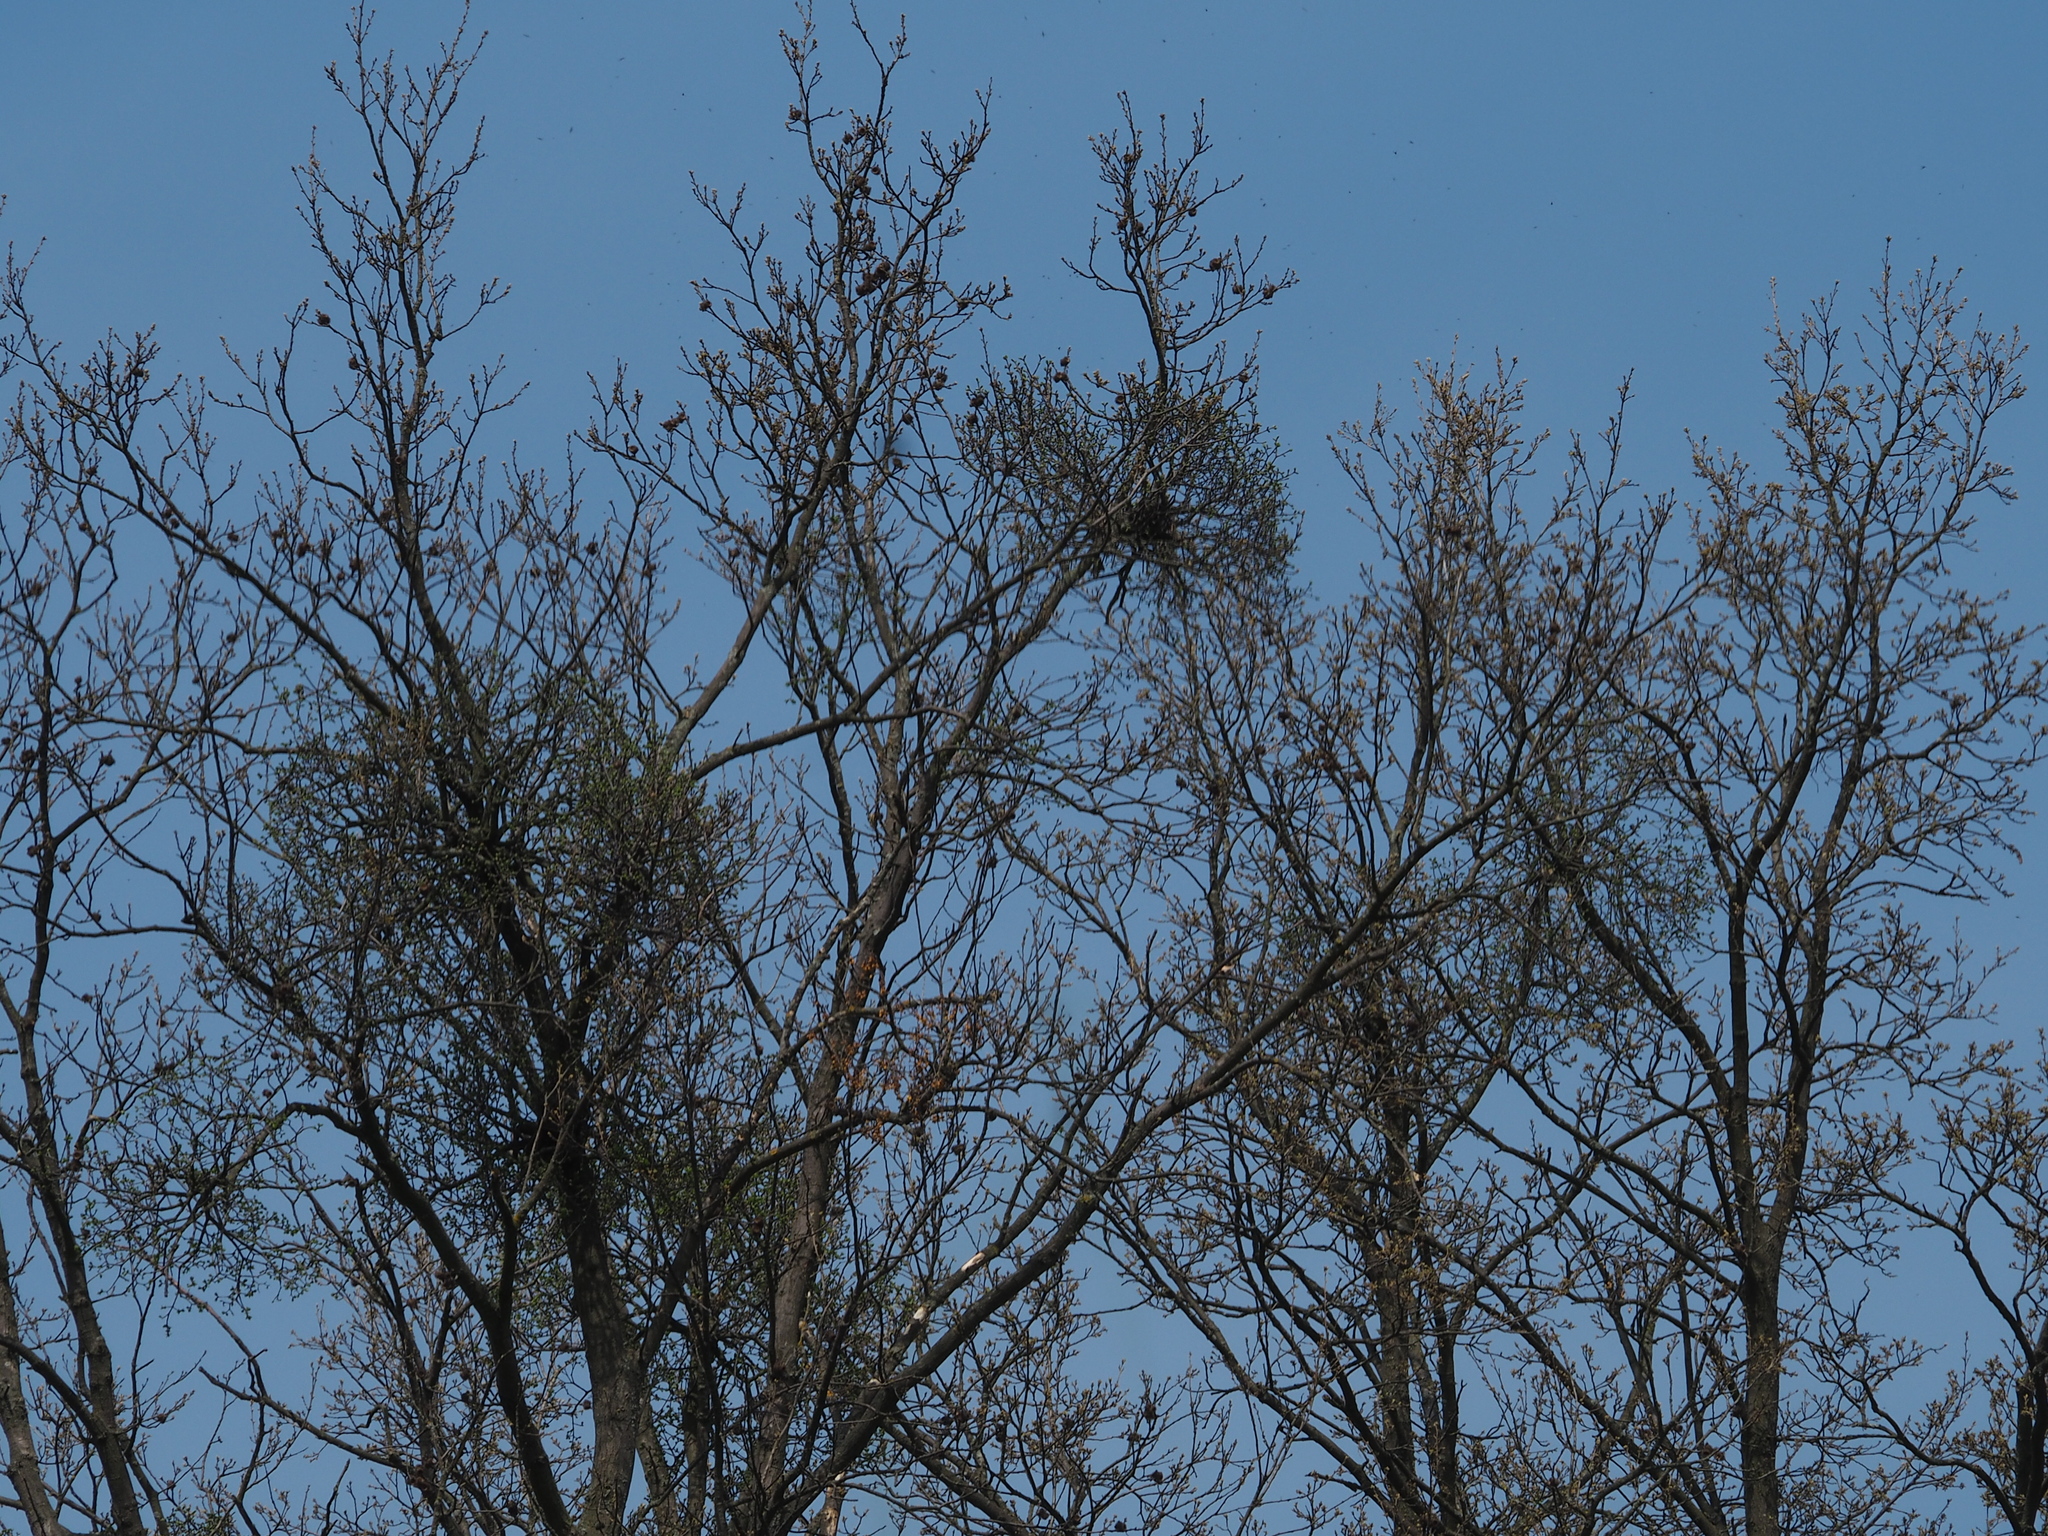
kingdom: Plantae
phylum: Tracheophyta
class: Magnoliopsida
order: Santalales
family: Loranthaceae
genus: Loranthus
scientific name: Loranthus europaeus
